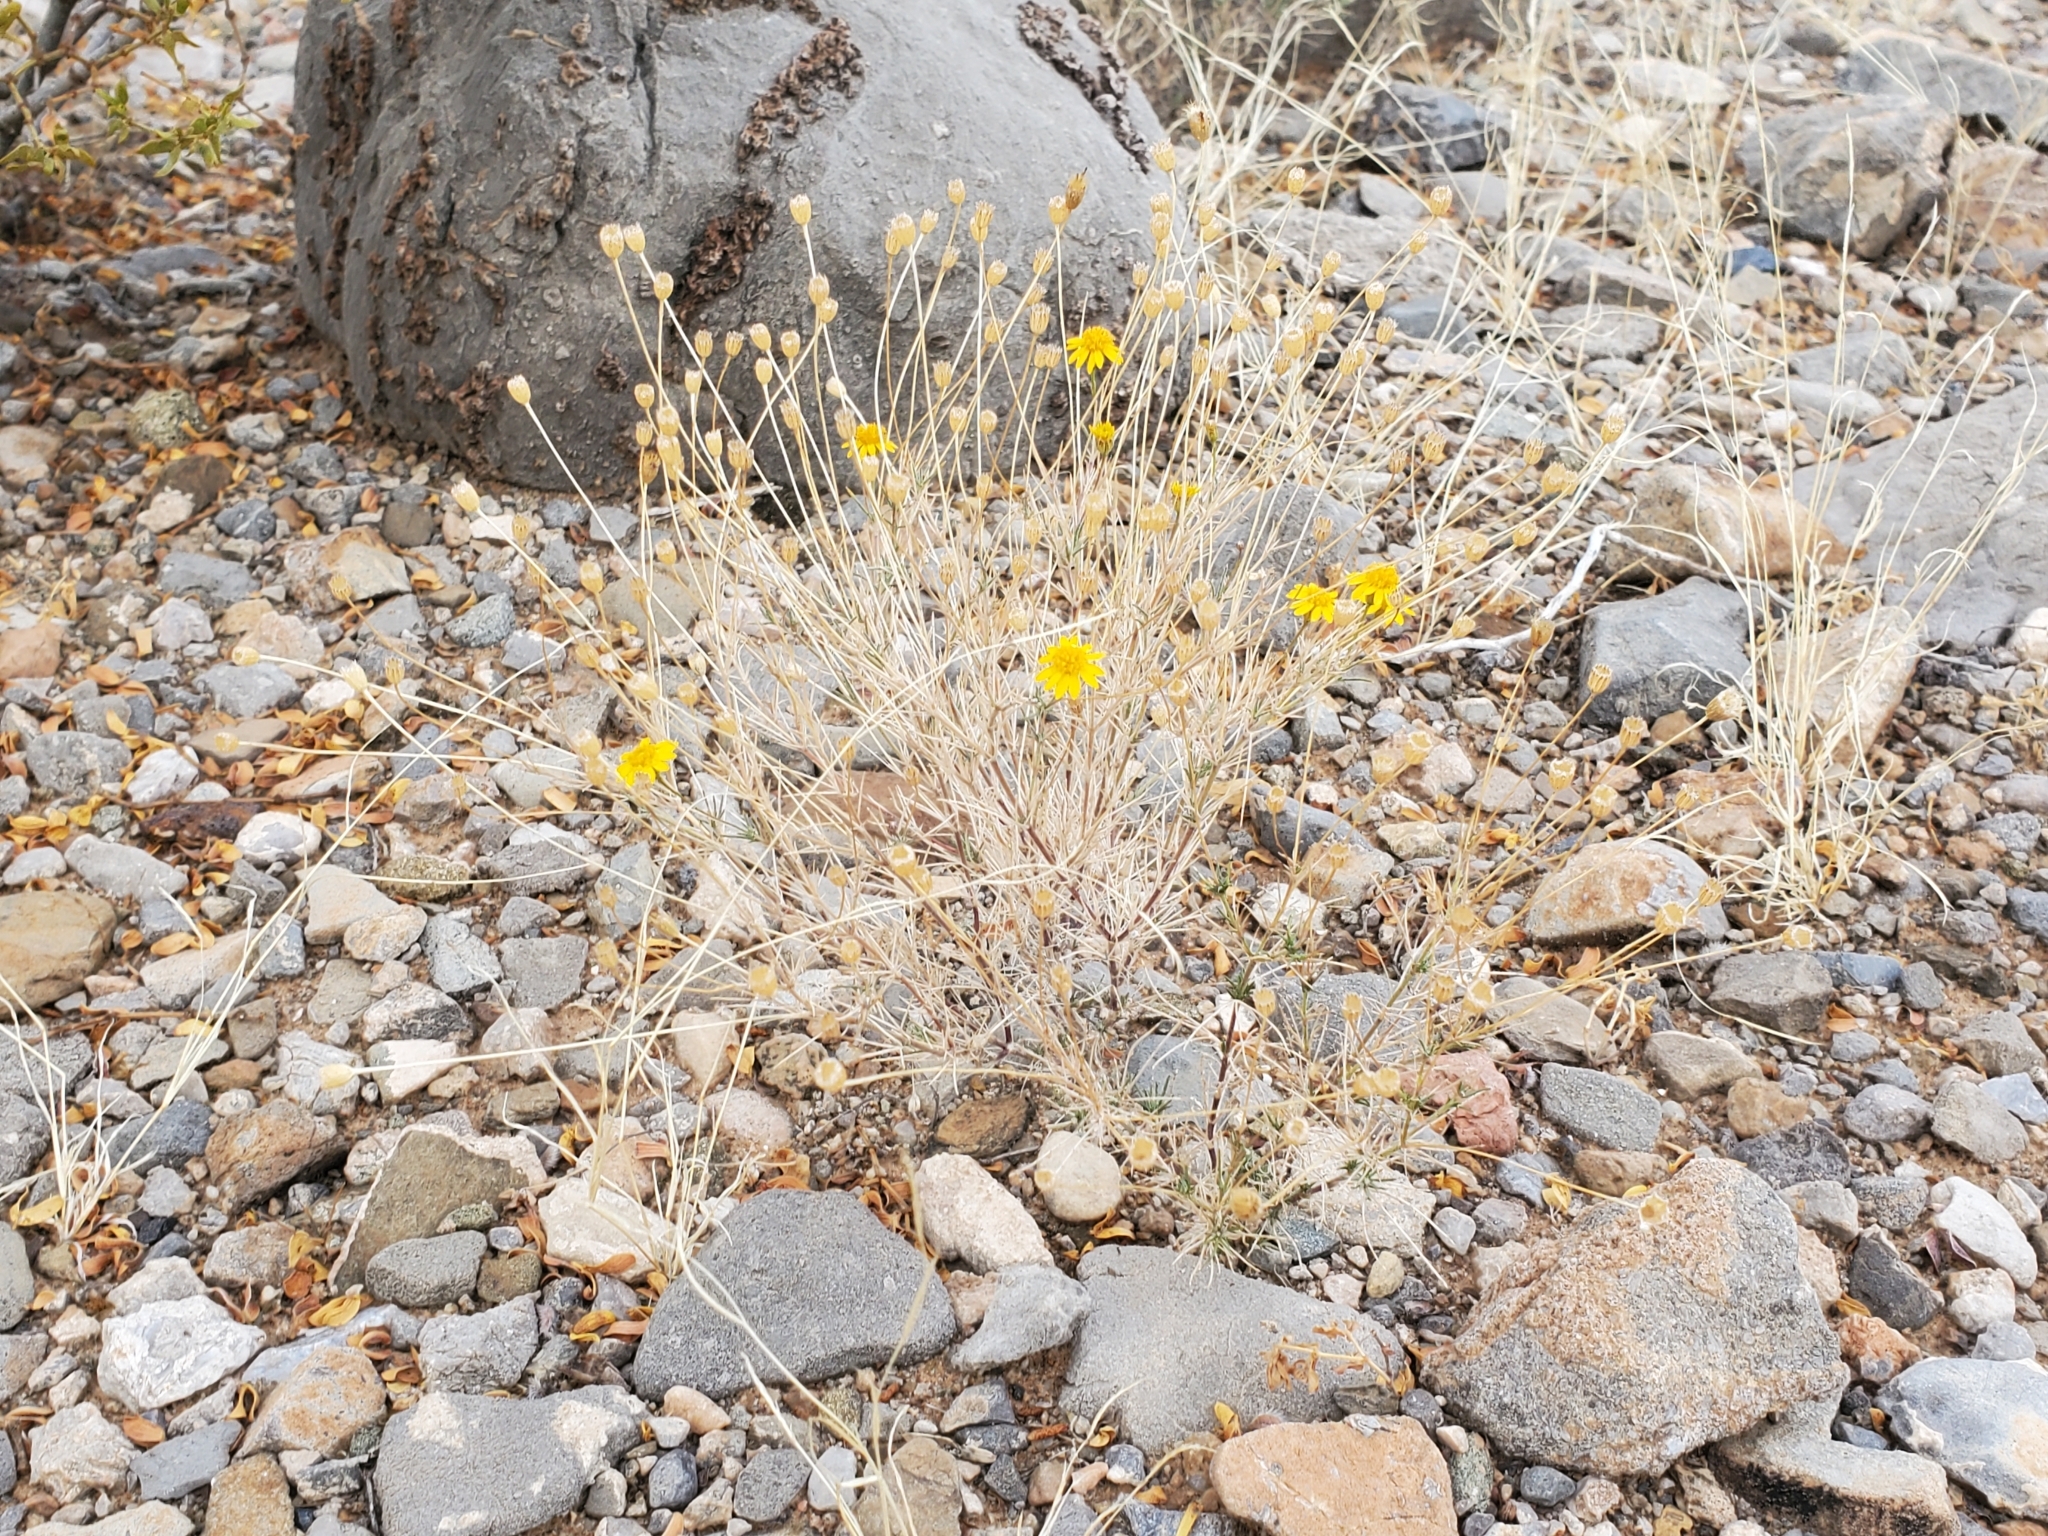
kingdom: Plantae
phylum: Tracheophyta
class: Magnoliopsida
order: Asterales
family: Asteraceae
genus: Thymophylla
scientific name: Thymophylla pentachaeta
